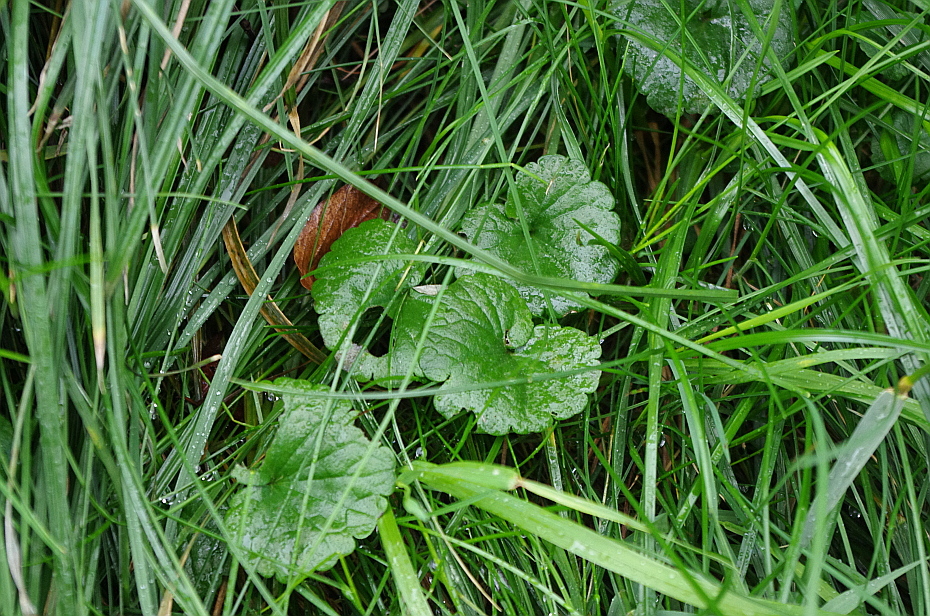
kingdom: Plantae
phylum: Tracheophyta
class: Magnoliopsida
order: Lamiales
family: Lamiaceae
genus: Glechoma
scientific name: Glechoma hederacea
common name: Ground ivy
